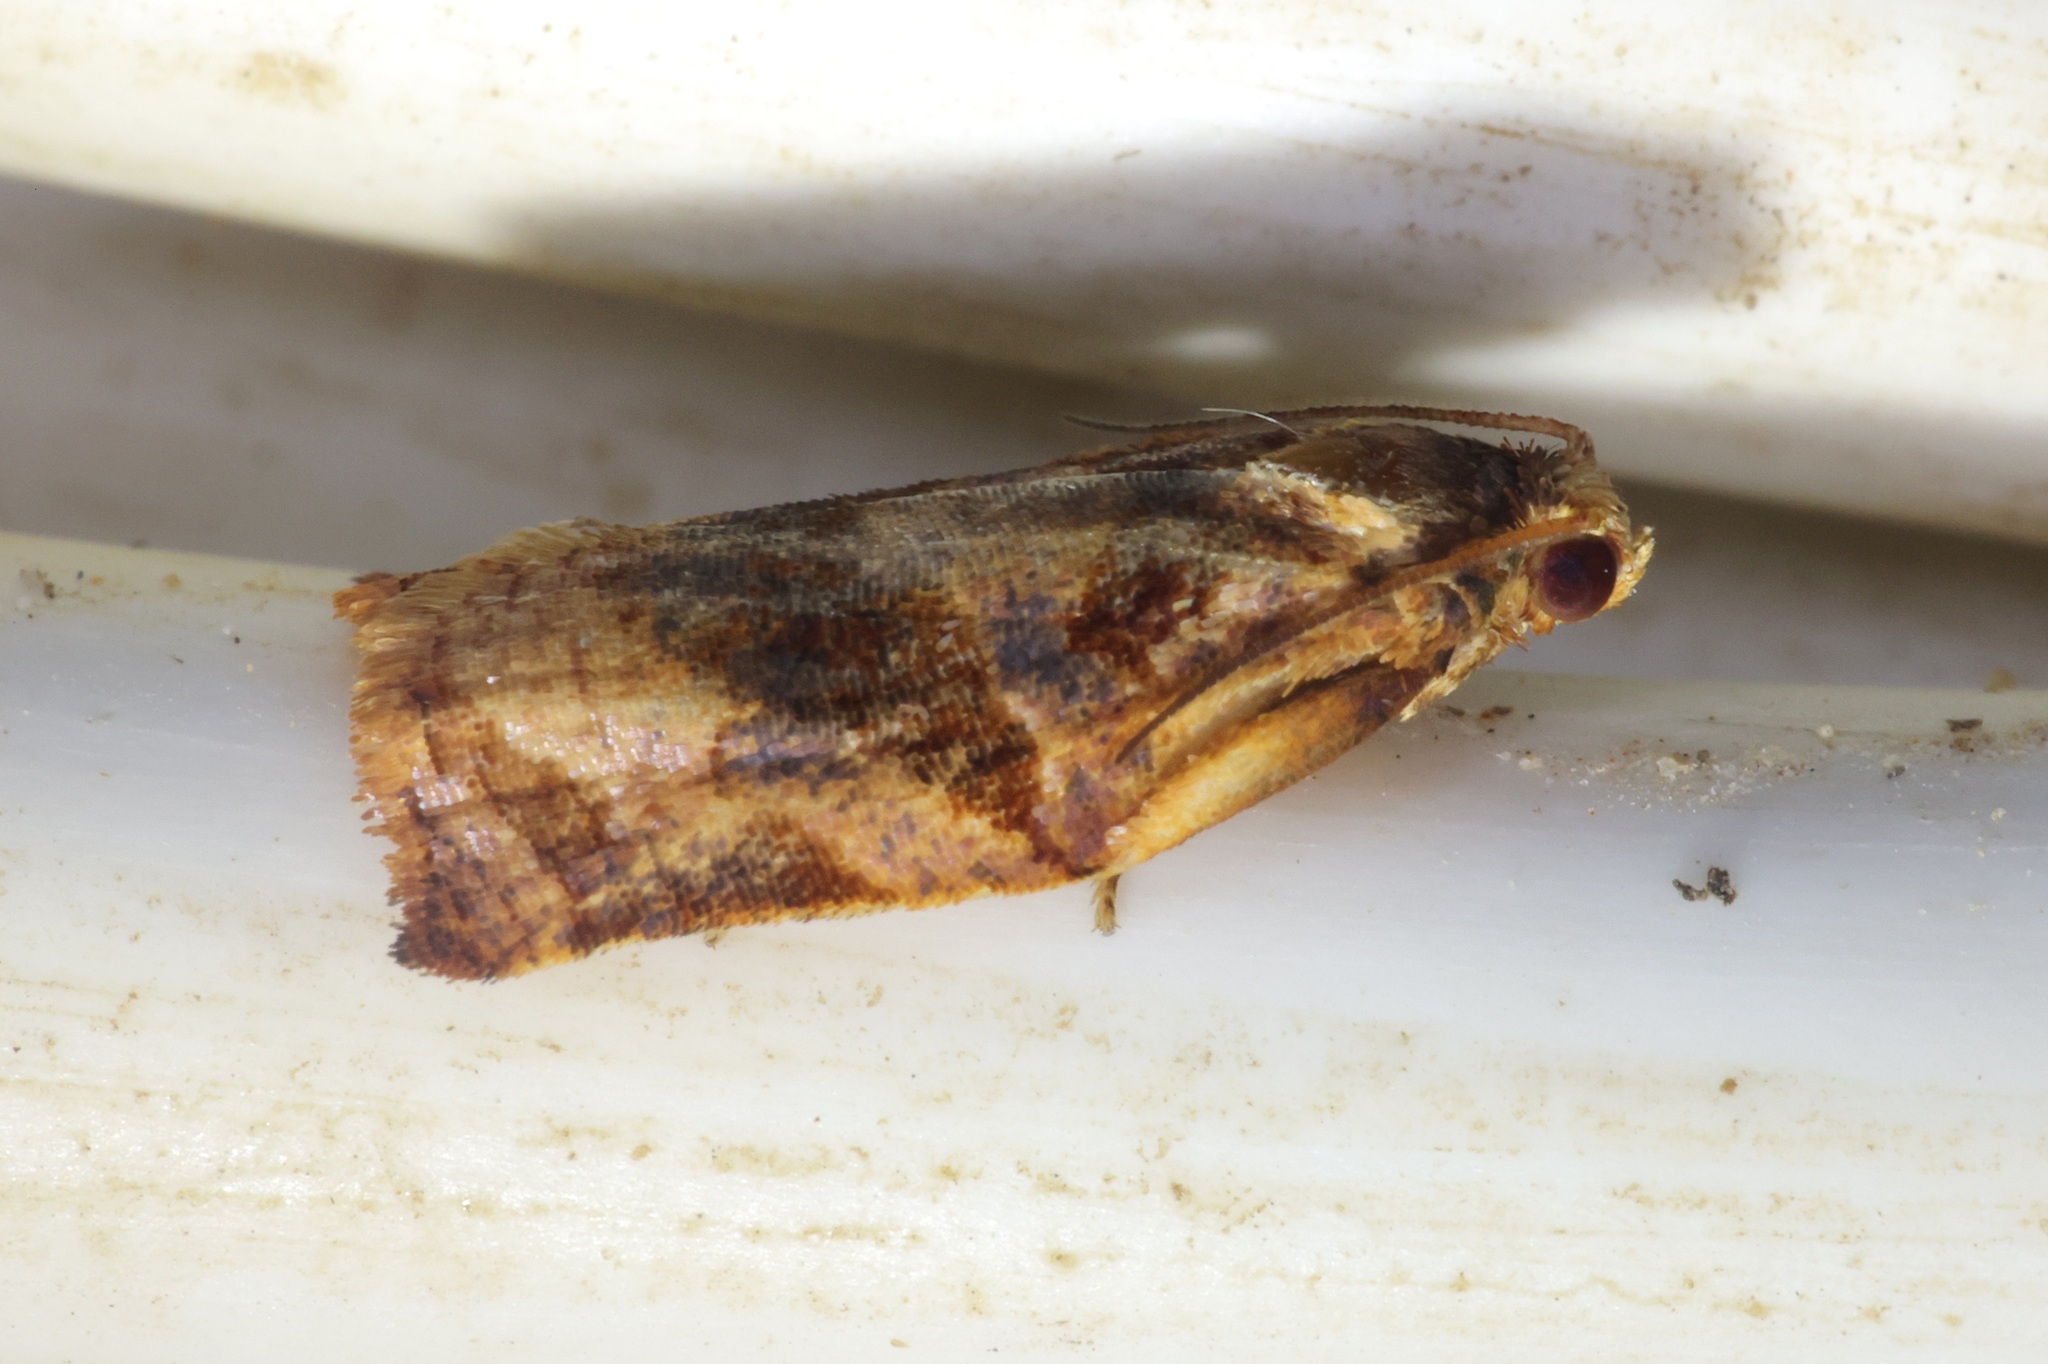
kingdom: Animalia
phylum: Arthropoda
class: Insecta
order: Lepidoptera
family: Tortricidae
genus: Archips
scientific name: Archips machlopis
